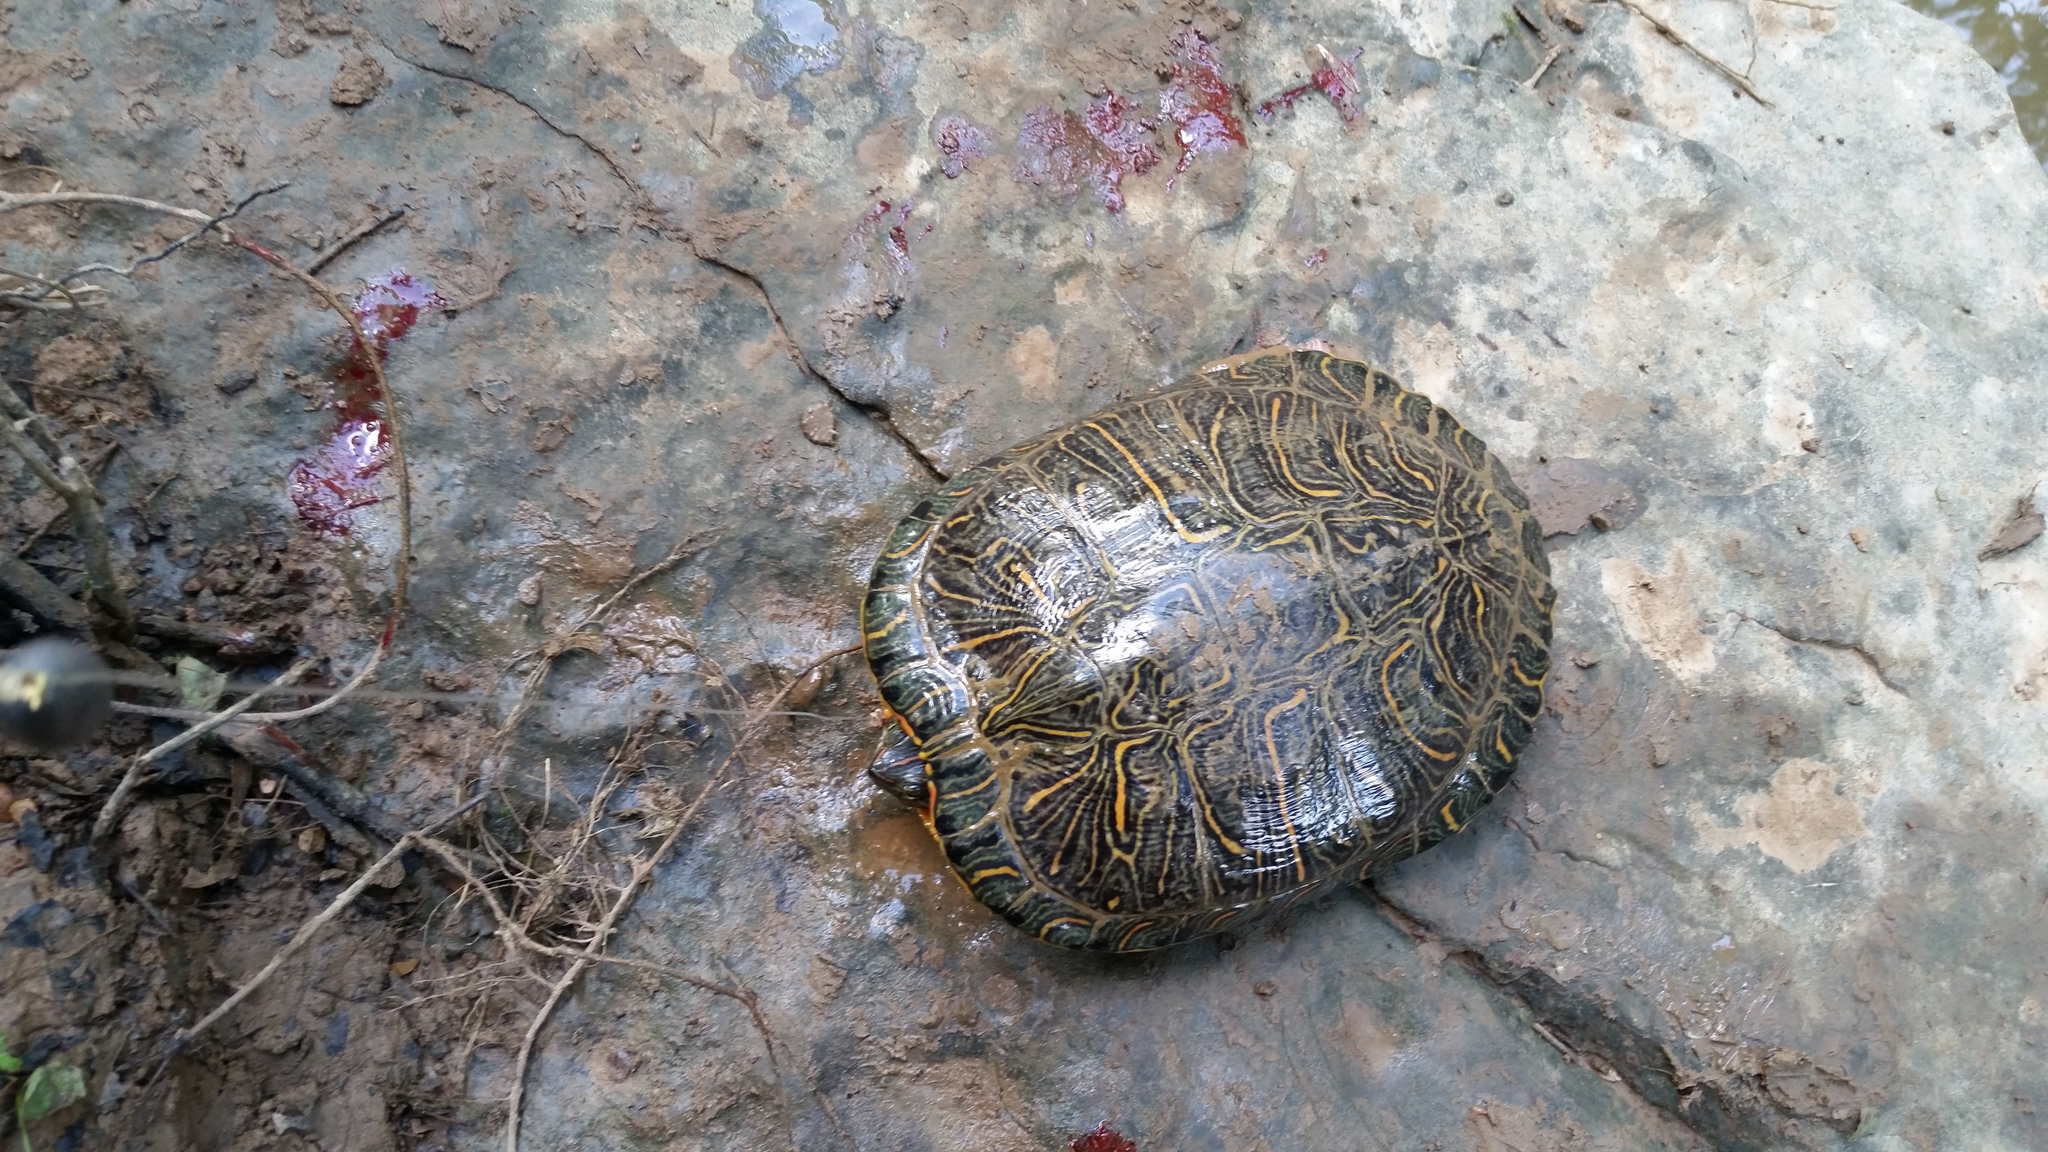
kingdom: Animalia
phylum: Chordata
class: Testudines
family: Emydidae
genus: Trachemys
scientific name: Trachemys scripta
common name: Slider
